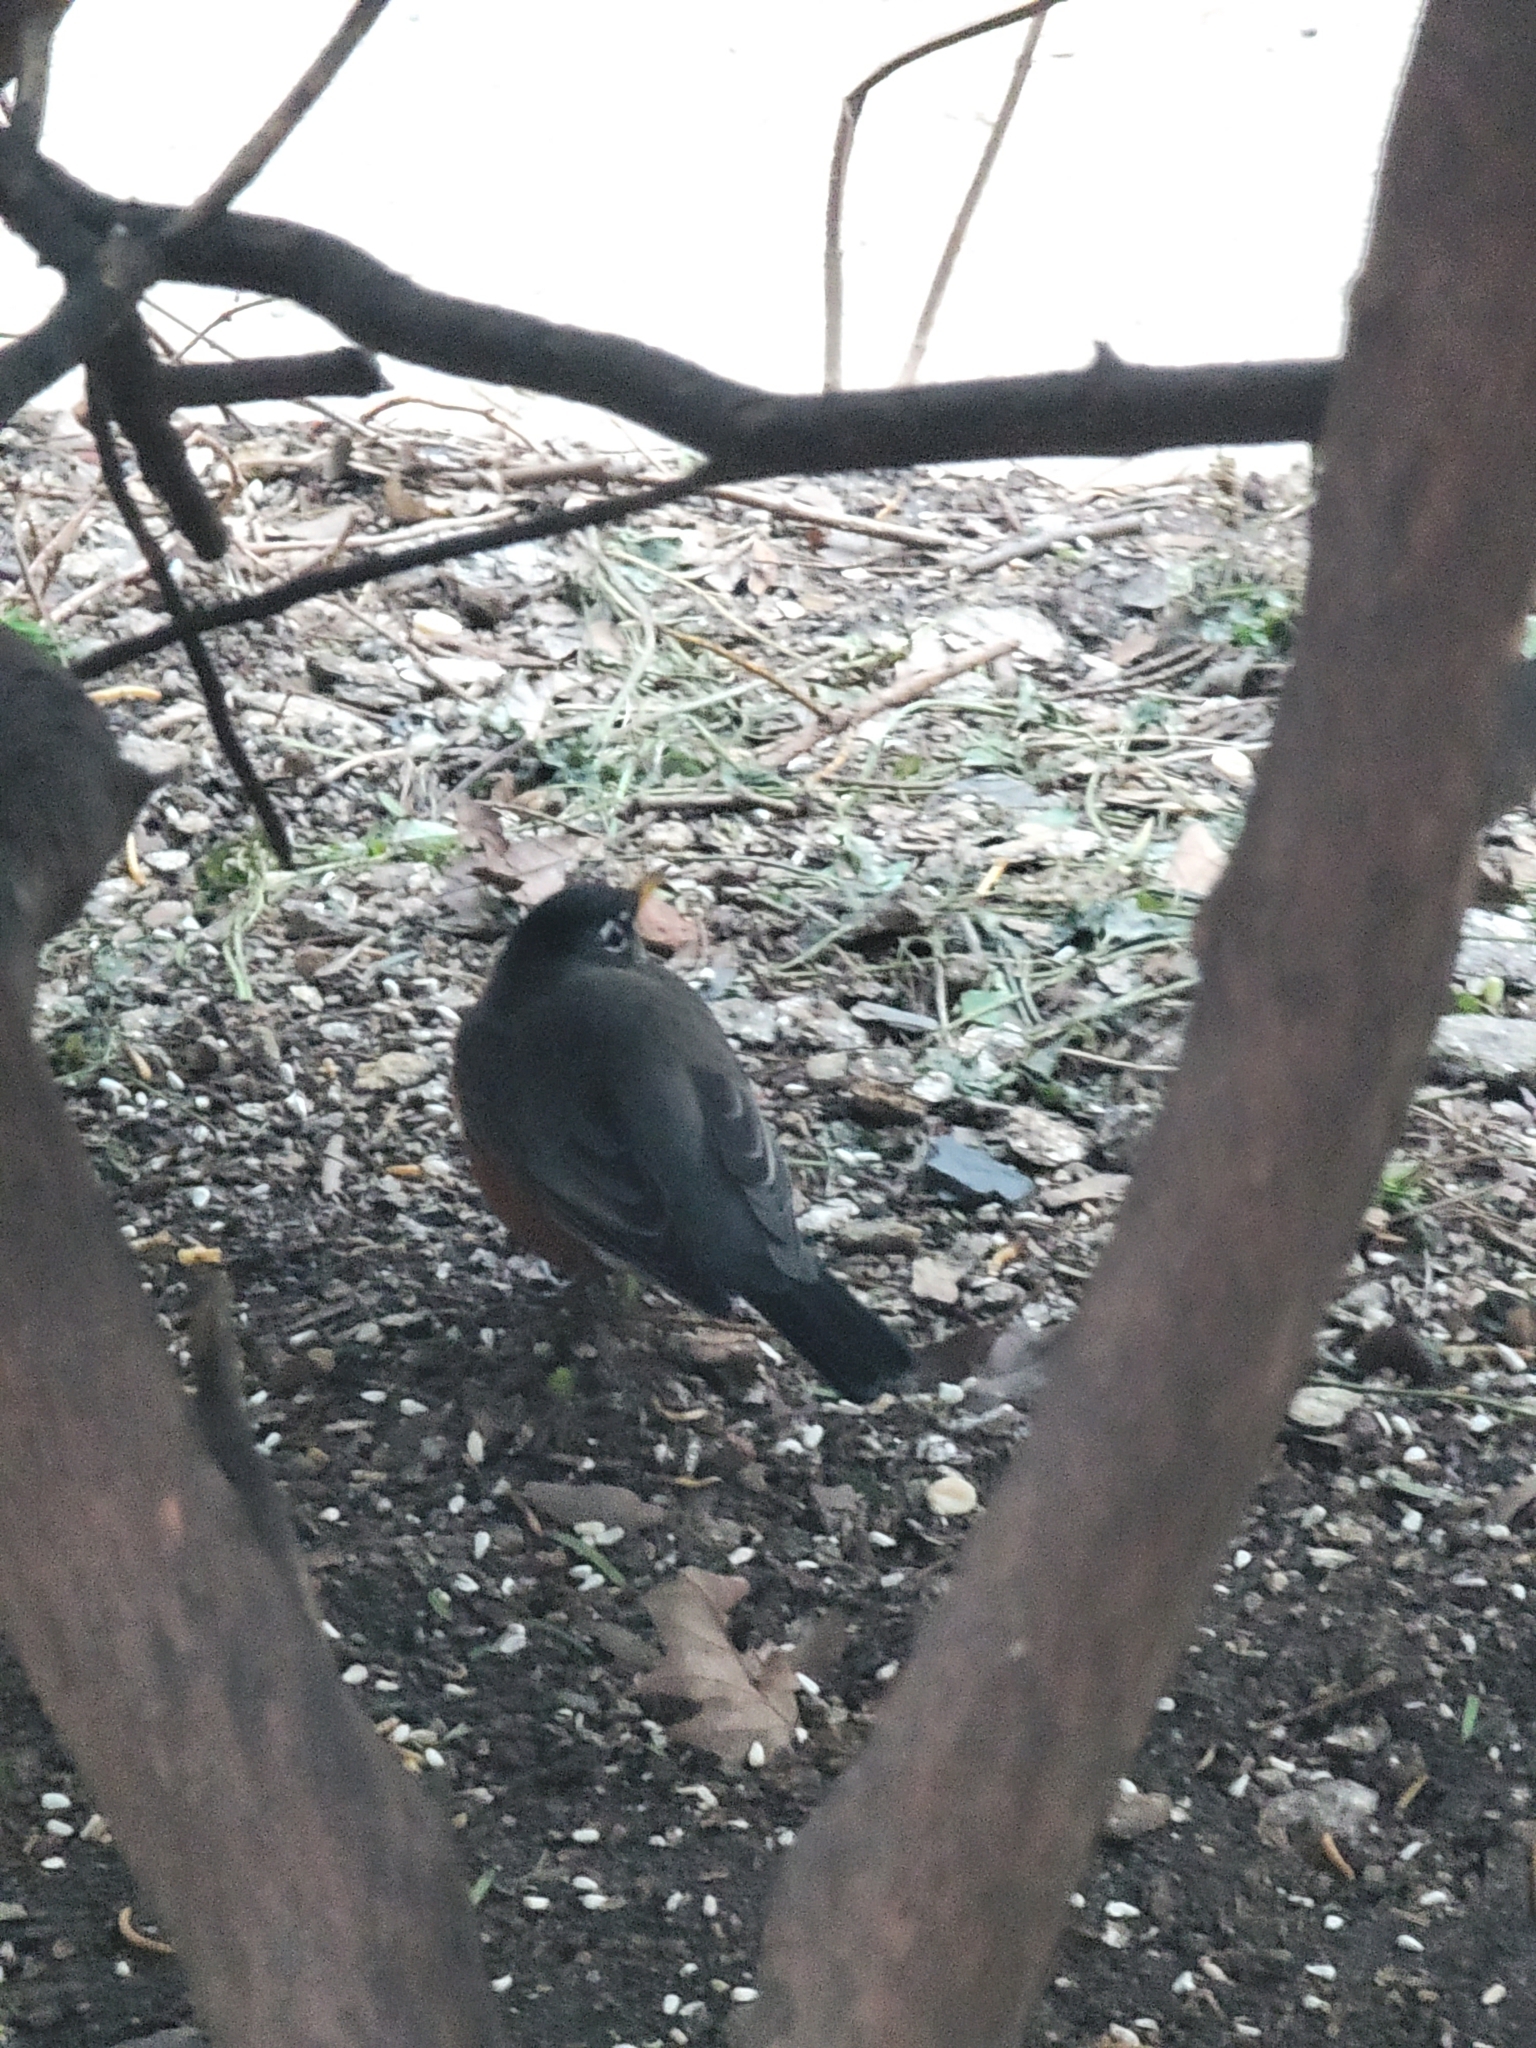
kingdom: Animalia
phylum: Chordata
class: Aves
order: Passeriformes
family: Turdidae
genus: Turdus
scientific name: Turdus migratorius
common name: American robin
